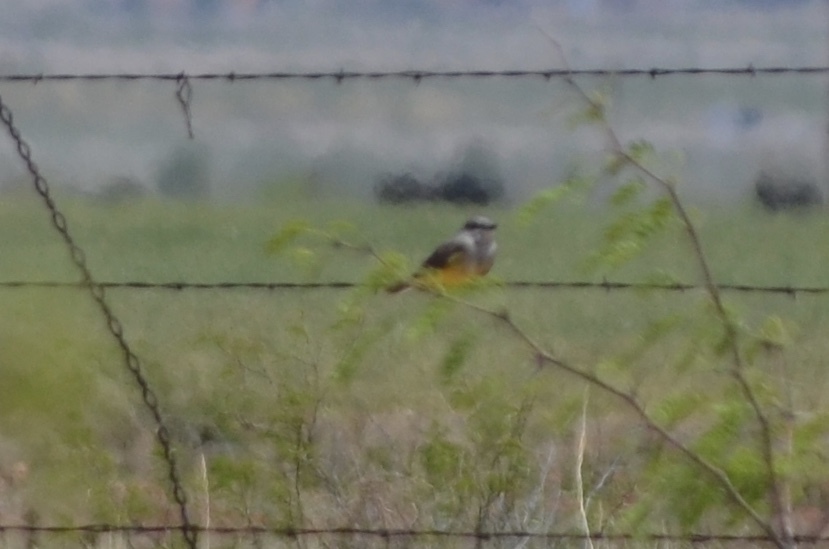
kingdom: Animalia
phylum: Chordata
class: Aves
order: Passeriformes
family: Tyrannidae
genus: Tyrannus
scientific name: Tyrannus verticalis
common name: Western kingbird
